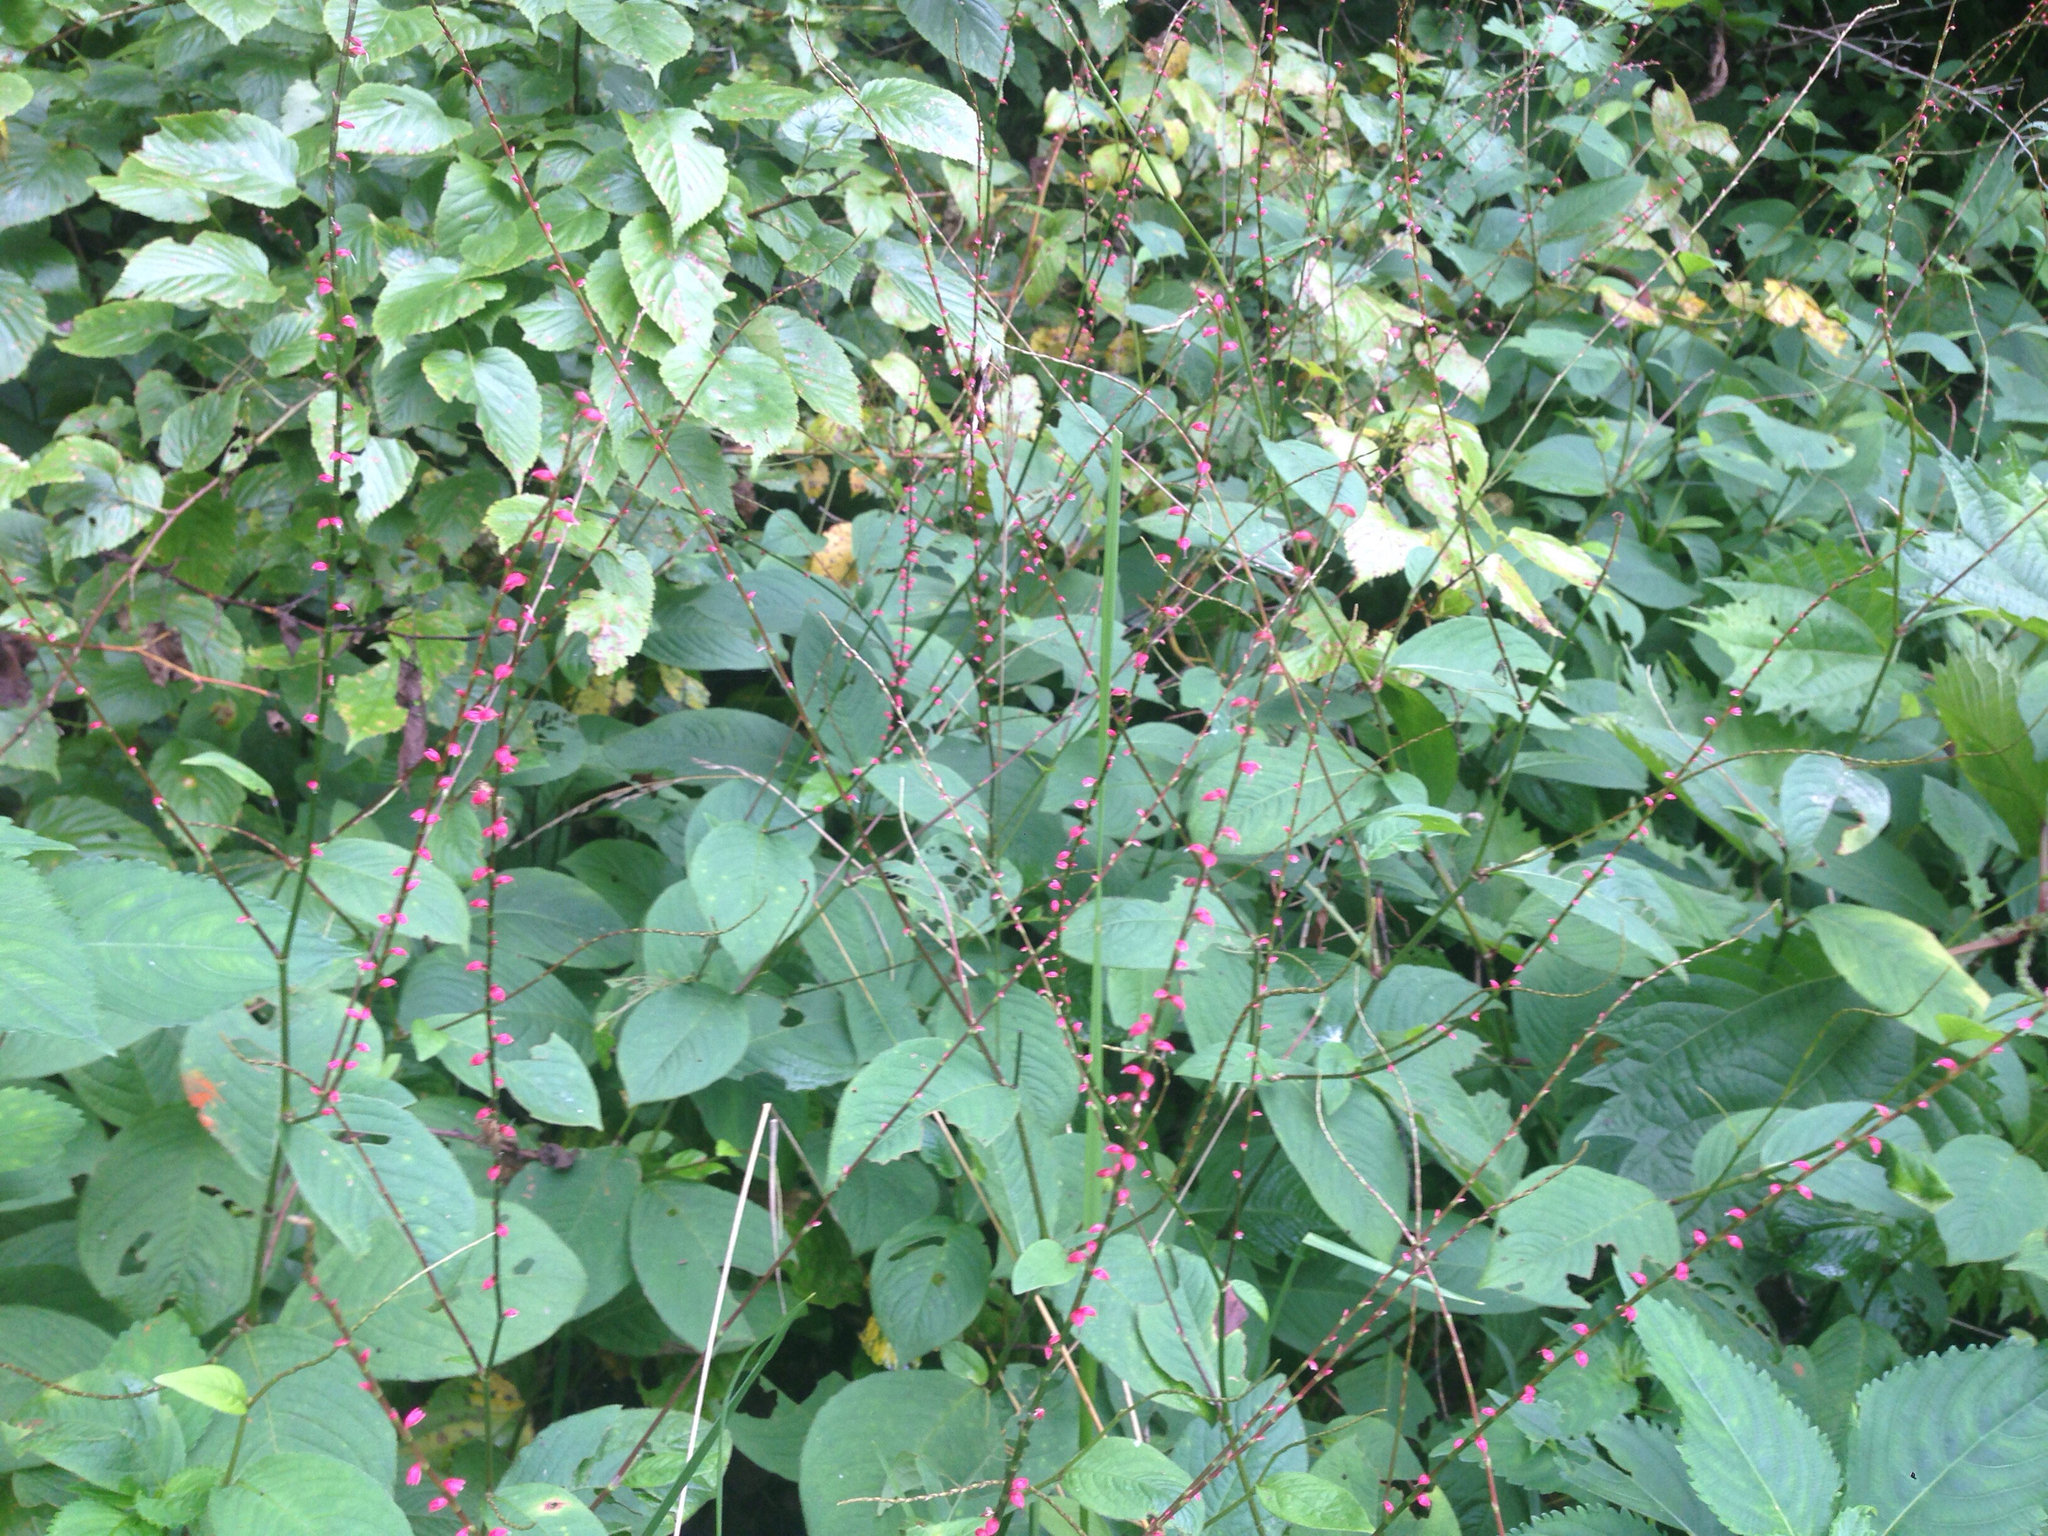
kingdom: Plantae
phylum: Tracheophyta
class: Magnoliopsida
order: Caryophyllales
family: Polygonaceae
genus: Persicaria
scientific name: Persicaria filiformis
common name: Asian jumpseed
